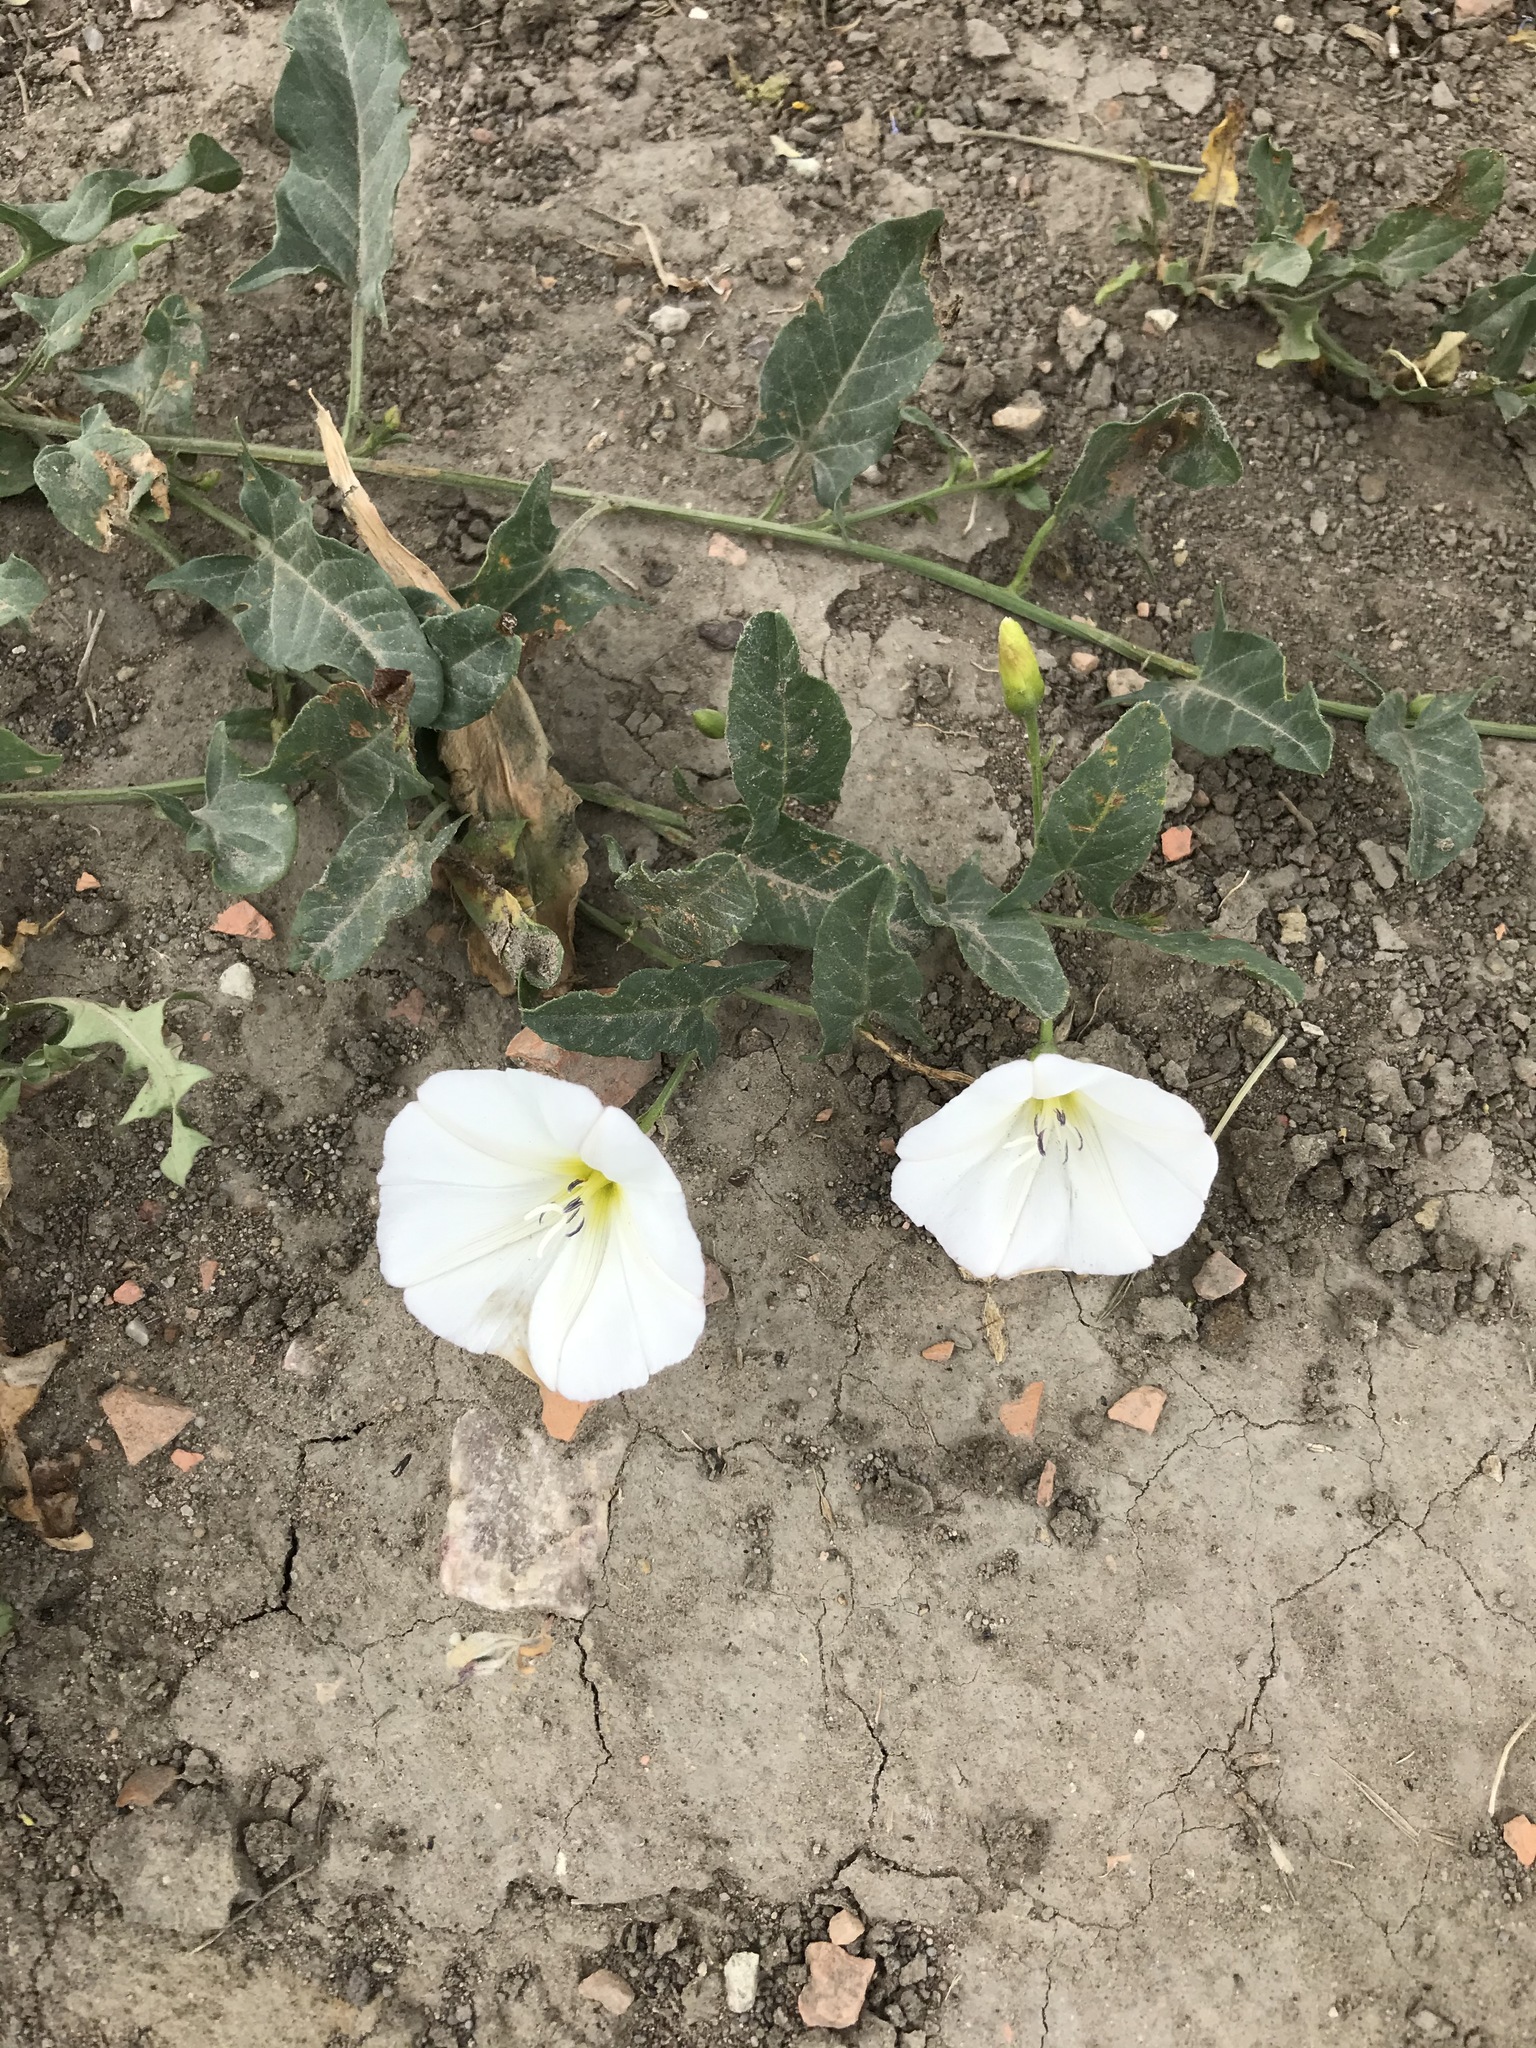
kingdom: Plantae
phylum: Tracheophyta
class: Magnoliopsida
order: Solanales
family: Convolvulaceae
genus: Convolvulus
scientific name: Convolvulus arvensis
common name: Field bindweed
